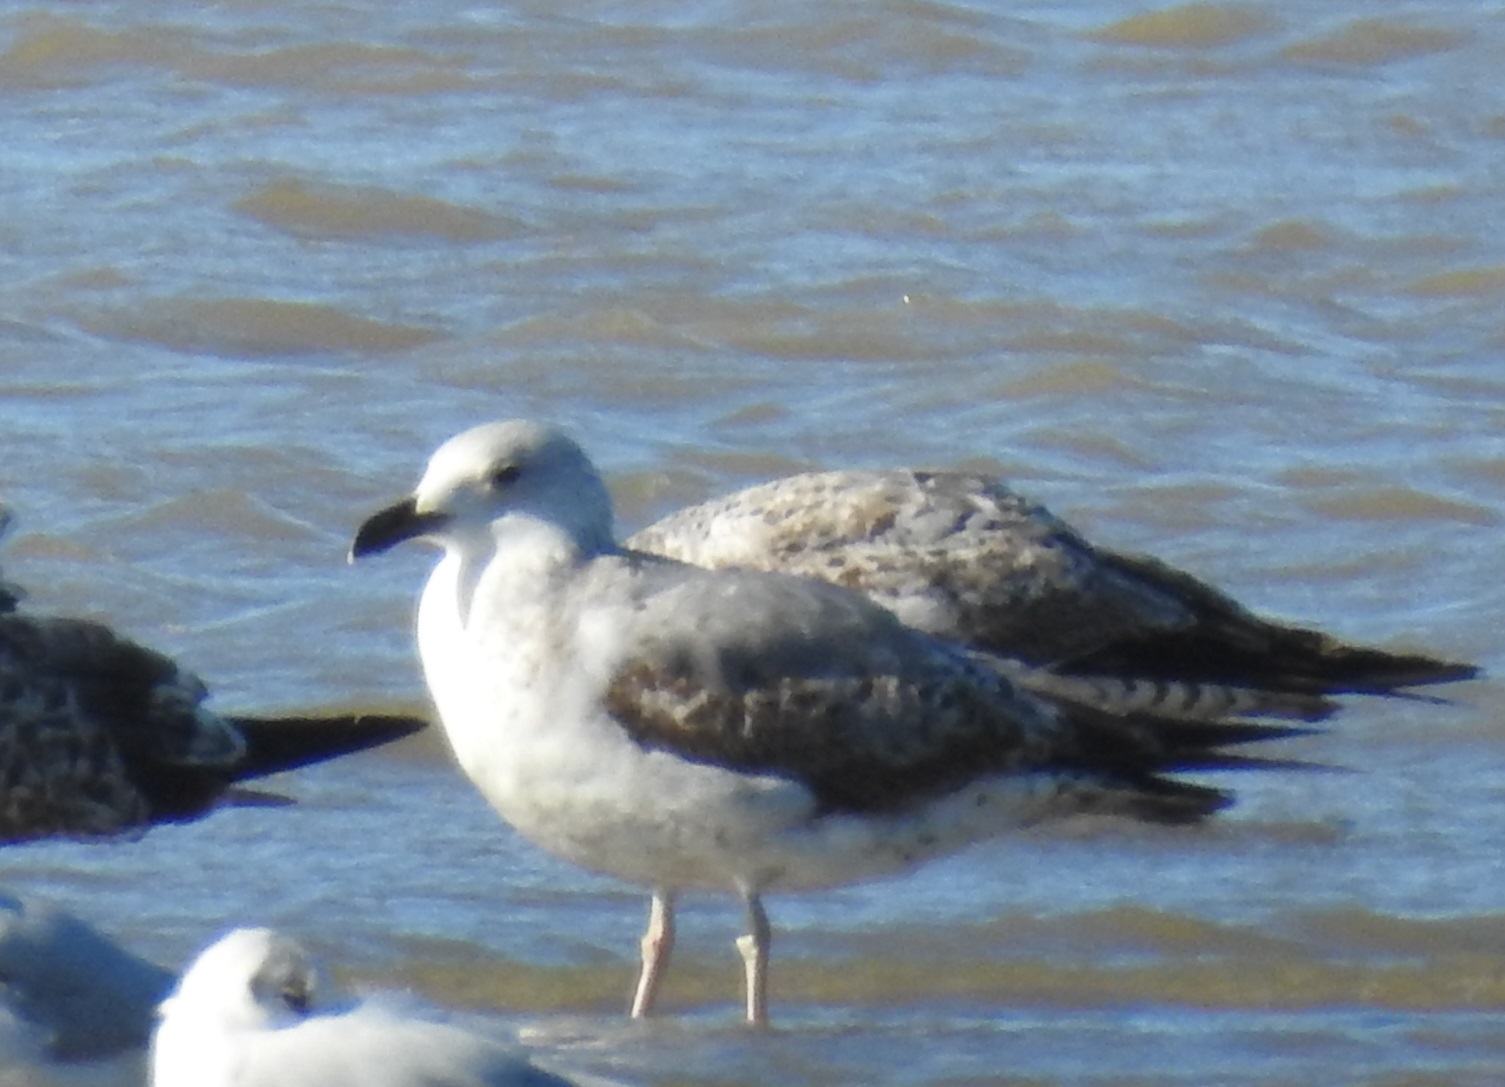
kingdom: Animalia
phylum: Chordata
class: Aves
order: Charadriiformes
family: Laridae
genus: Larus
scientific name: Larus michahellis
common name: Yellow-legged gull
